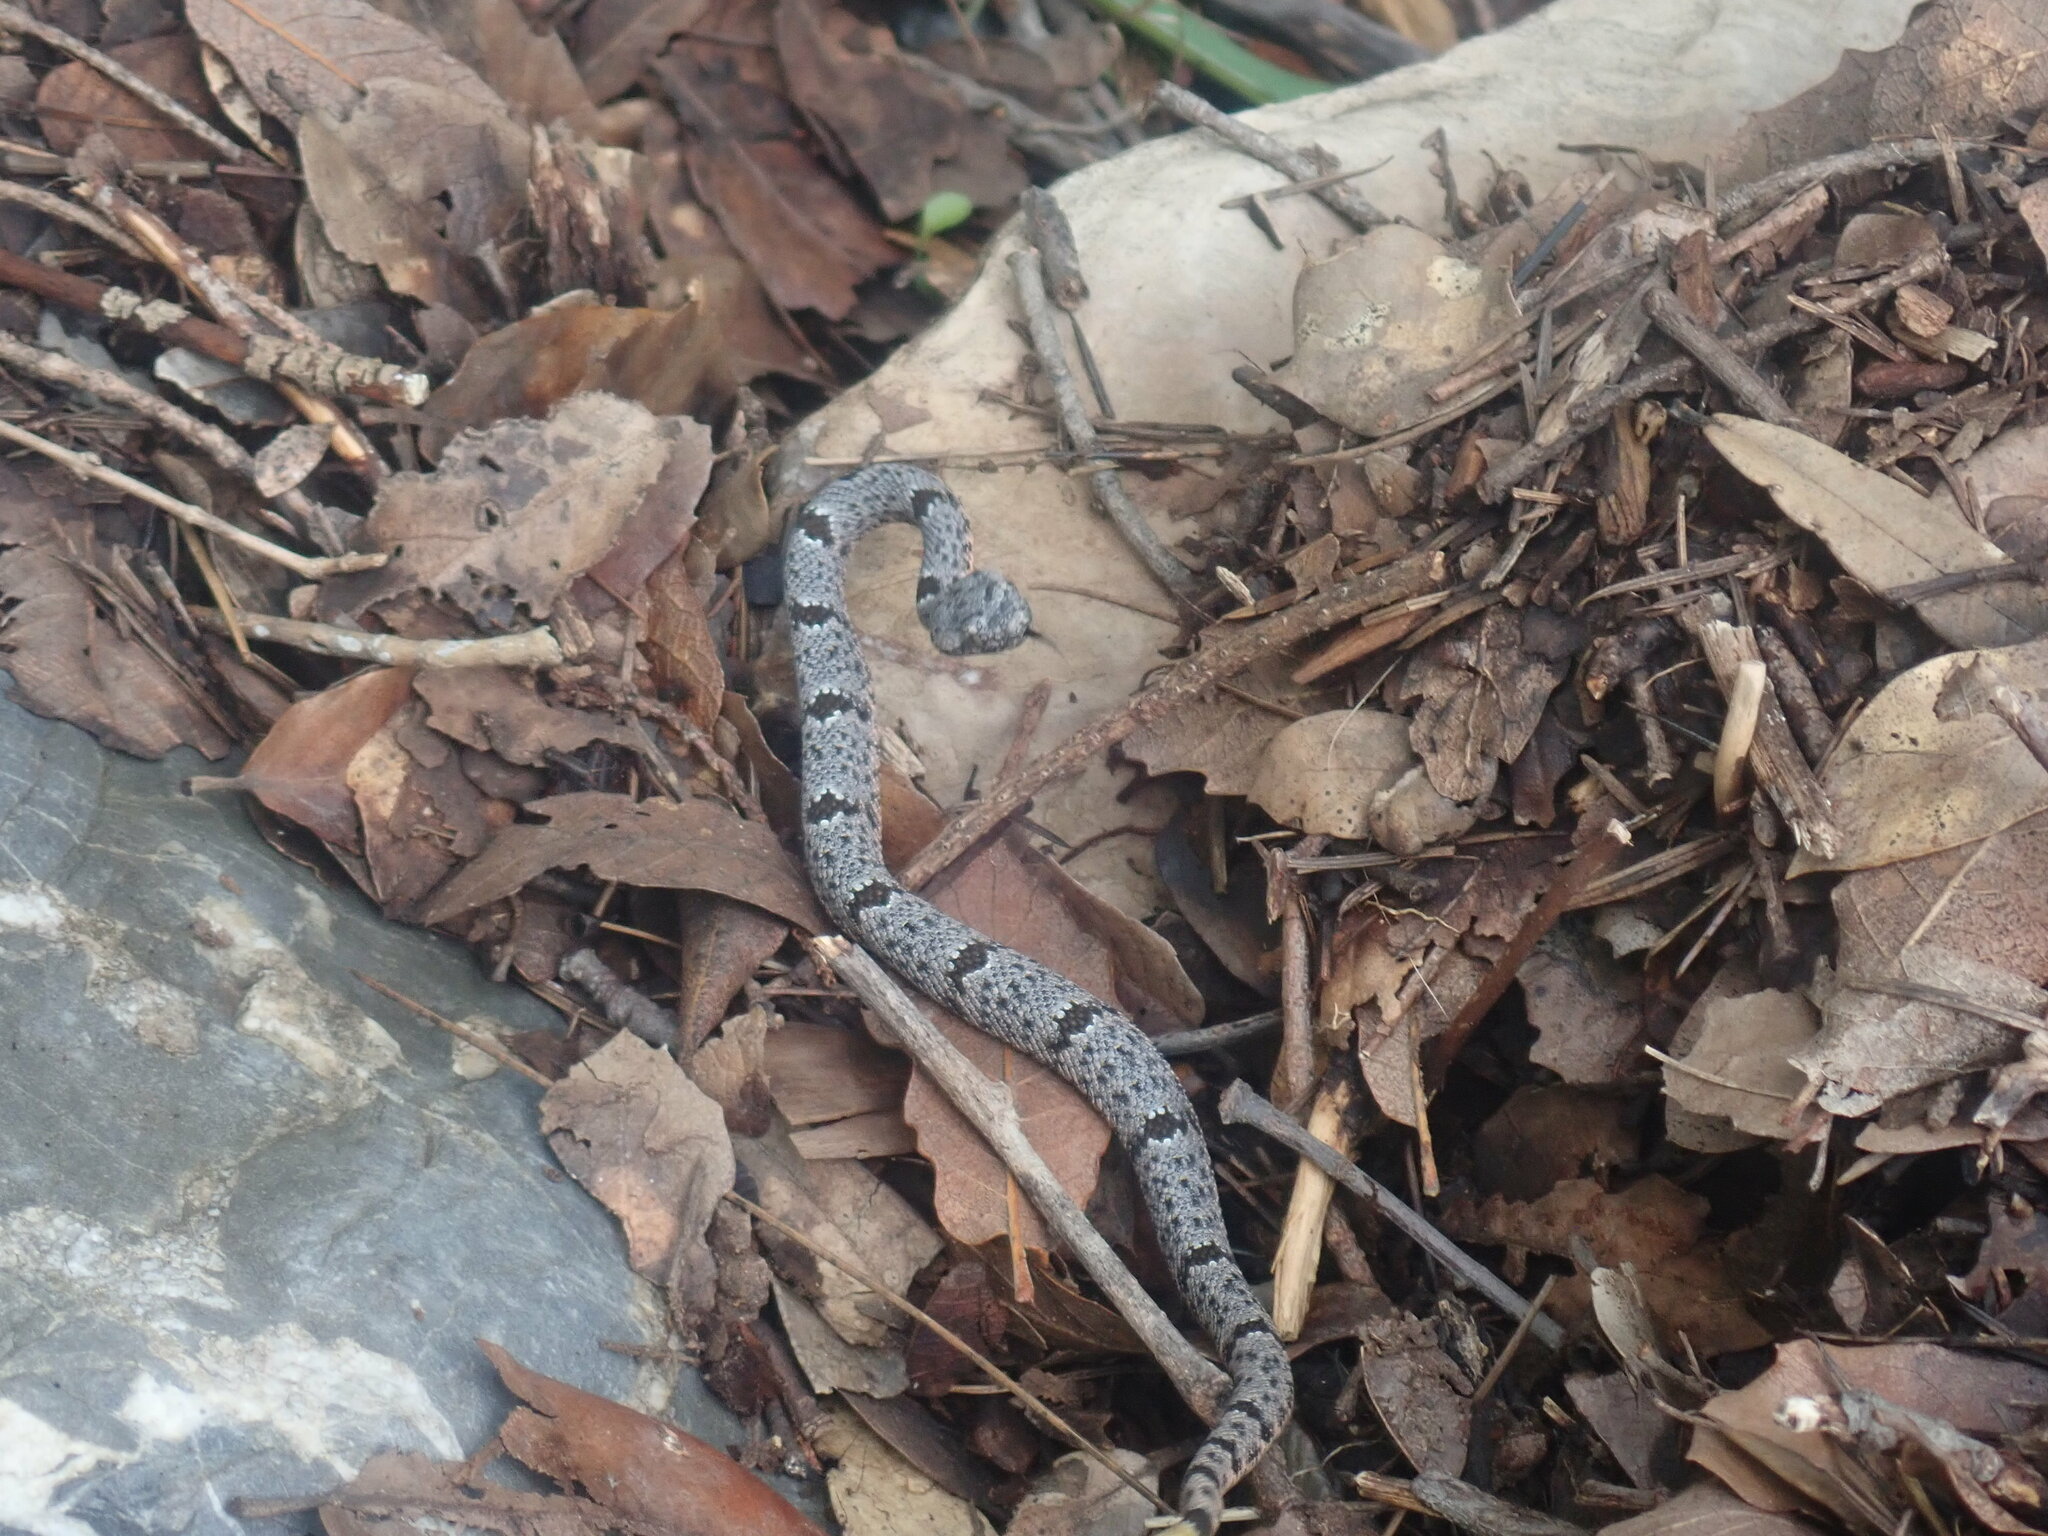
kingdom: Animalia
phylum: Chordata
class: Squamata
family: Viperidae
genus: Crotalus
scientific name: Crotalus lepidus
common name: Rock rattlesnake
